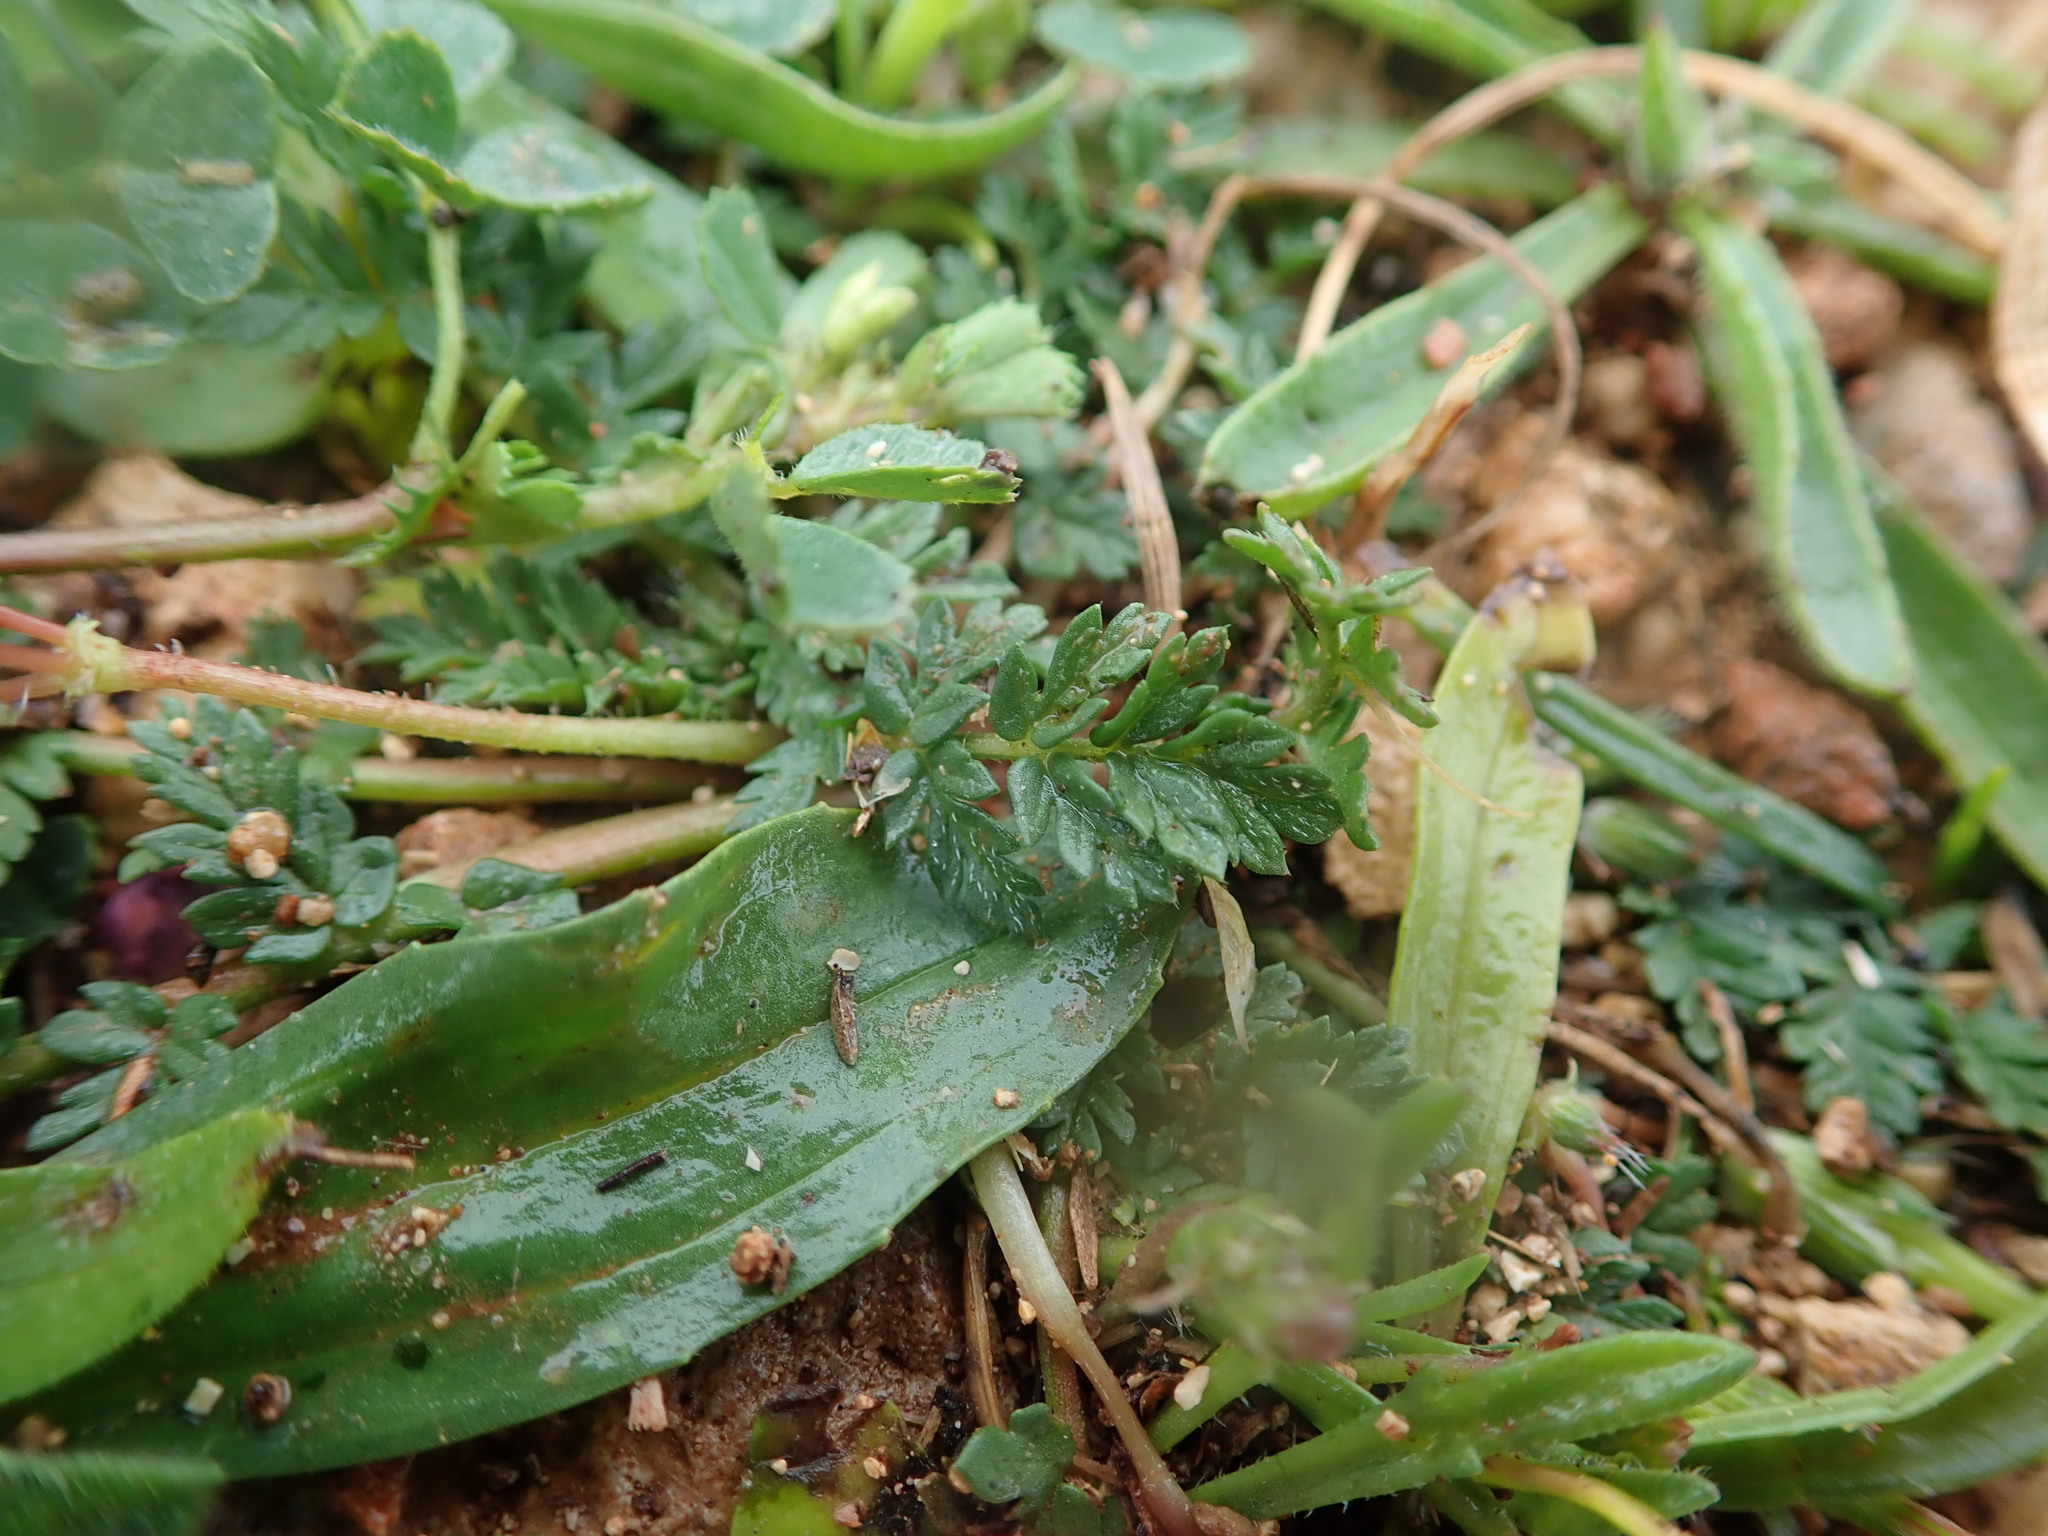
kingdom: Plantae
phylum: Tracheophyta
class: Magnoliopsida
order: Geraniales
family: Geraniaceae
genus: Erodium
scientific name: Erodium cicutarium
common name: Common stork's-bill
